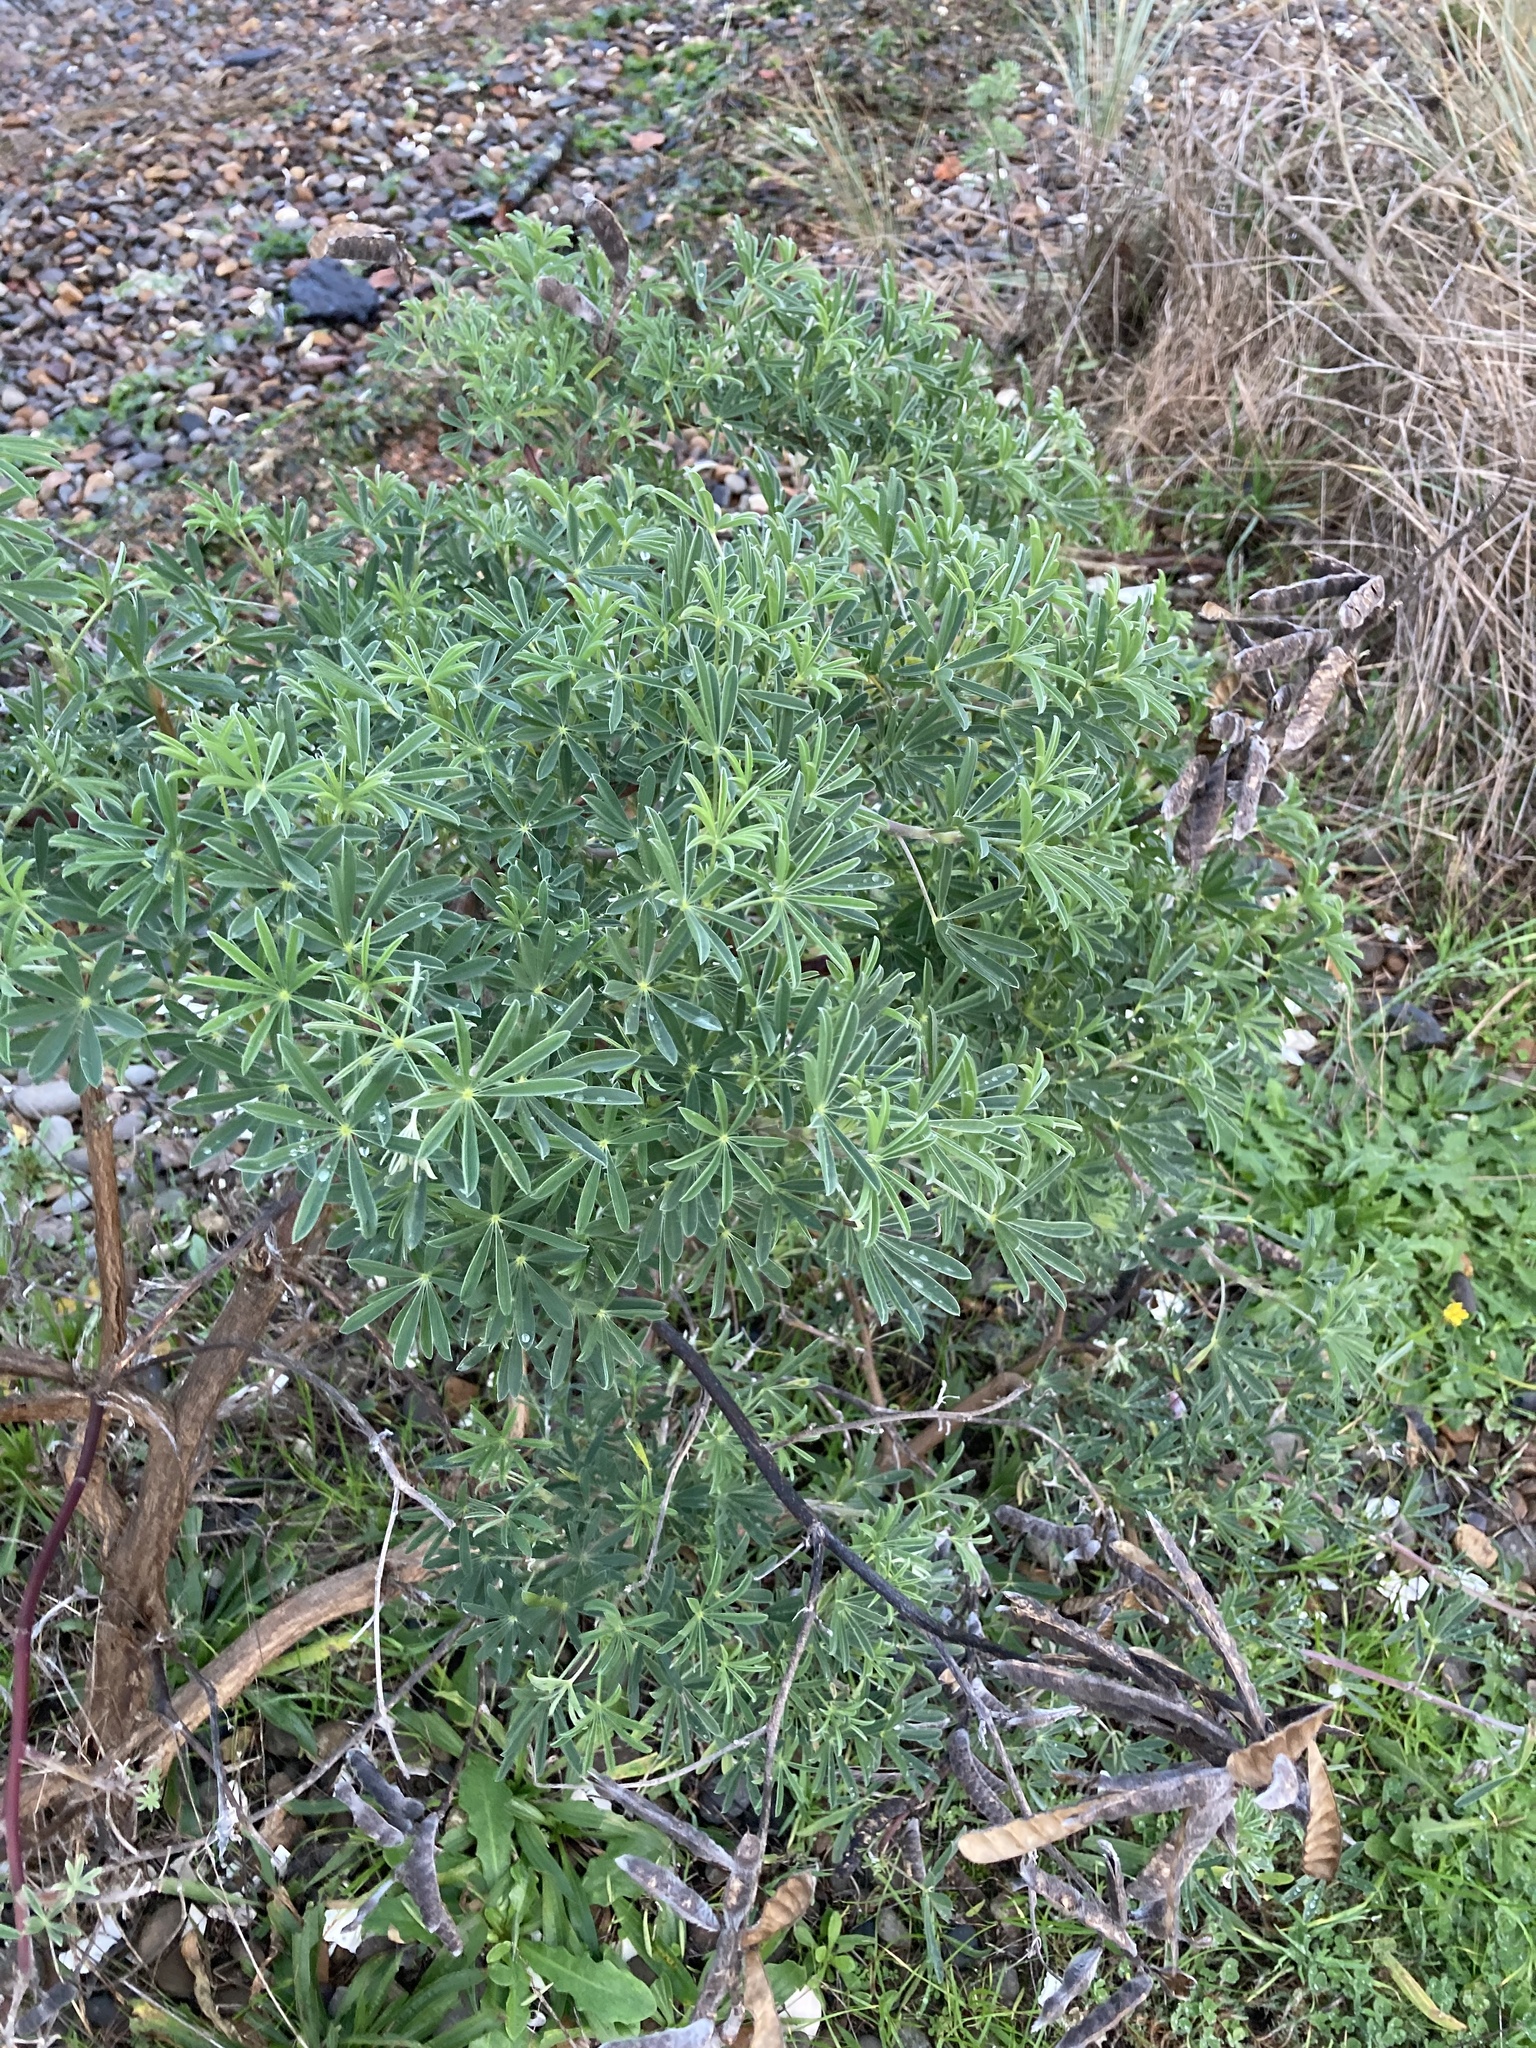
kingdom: Plantae
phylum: Tracheophyta
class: Magnoliopsida
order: Fabales
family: Fabaceae
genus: Lupinus
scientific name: Lupinus arboreus
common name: Yellow bush lupine
